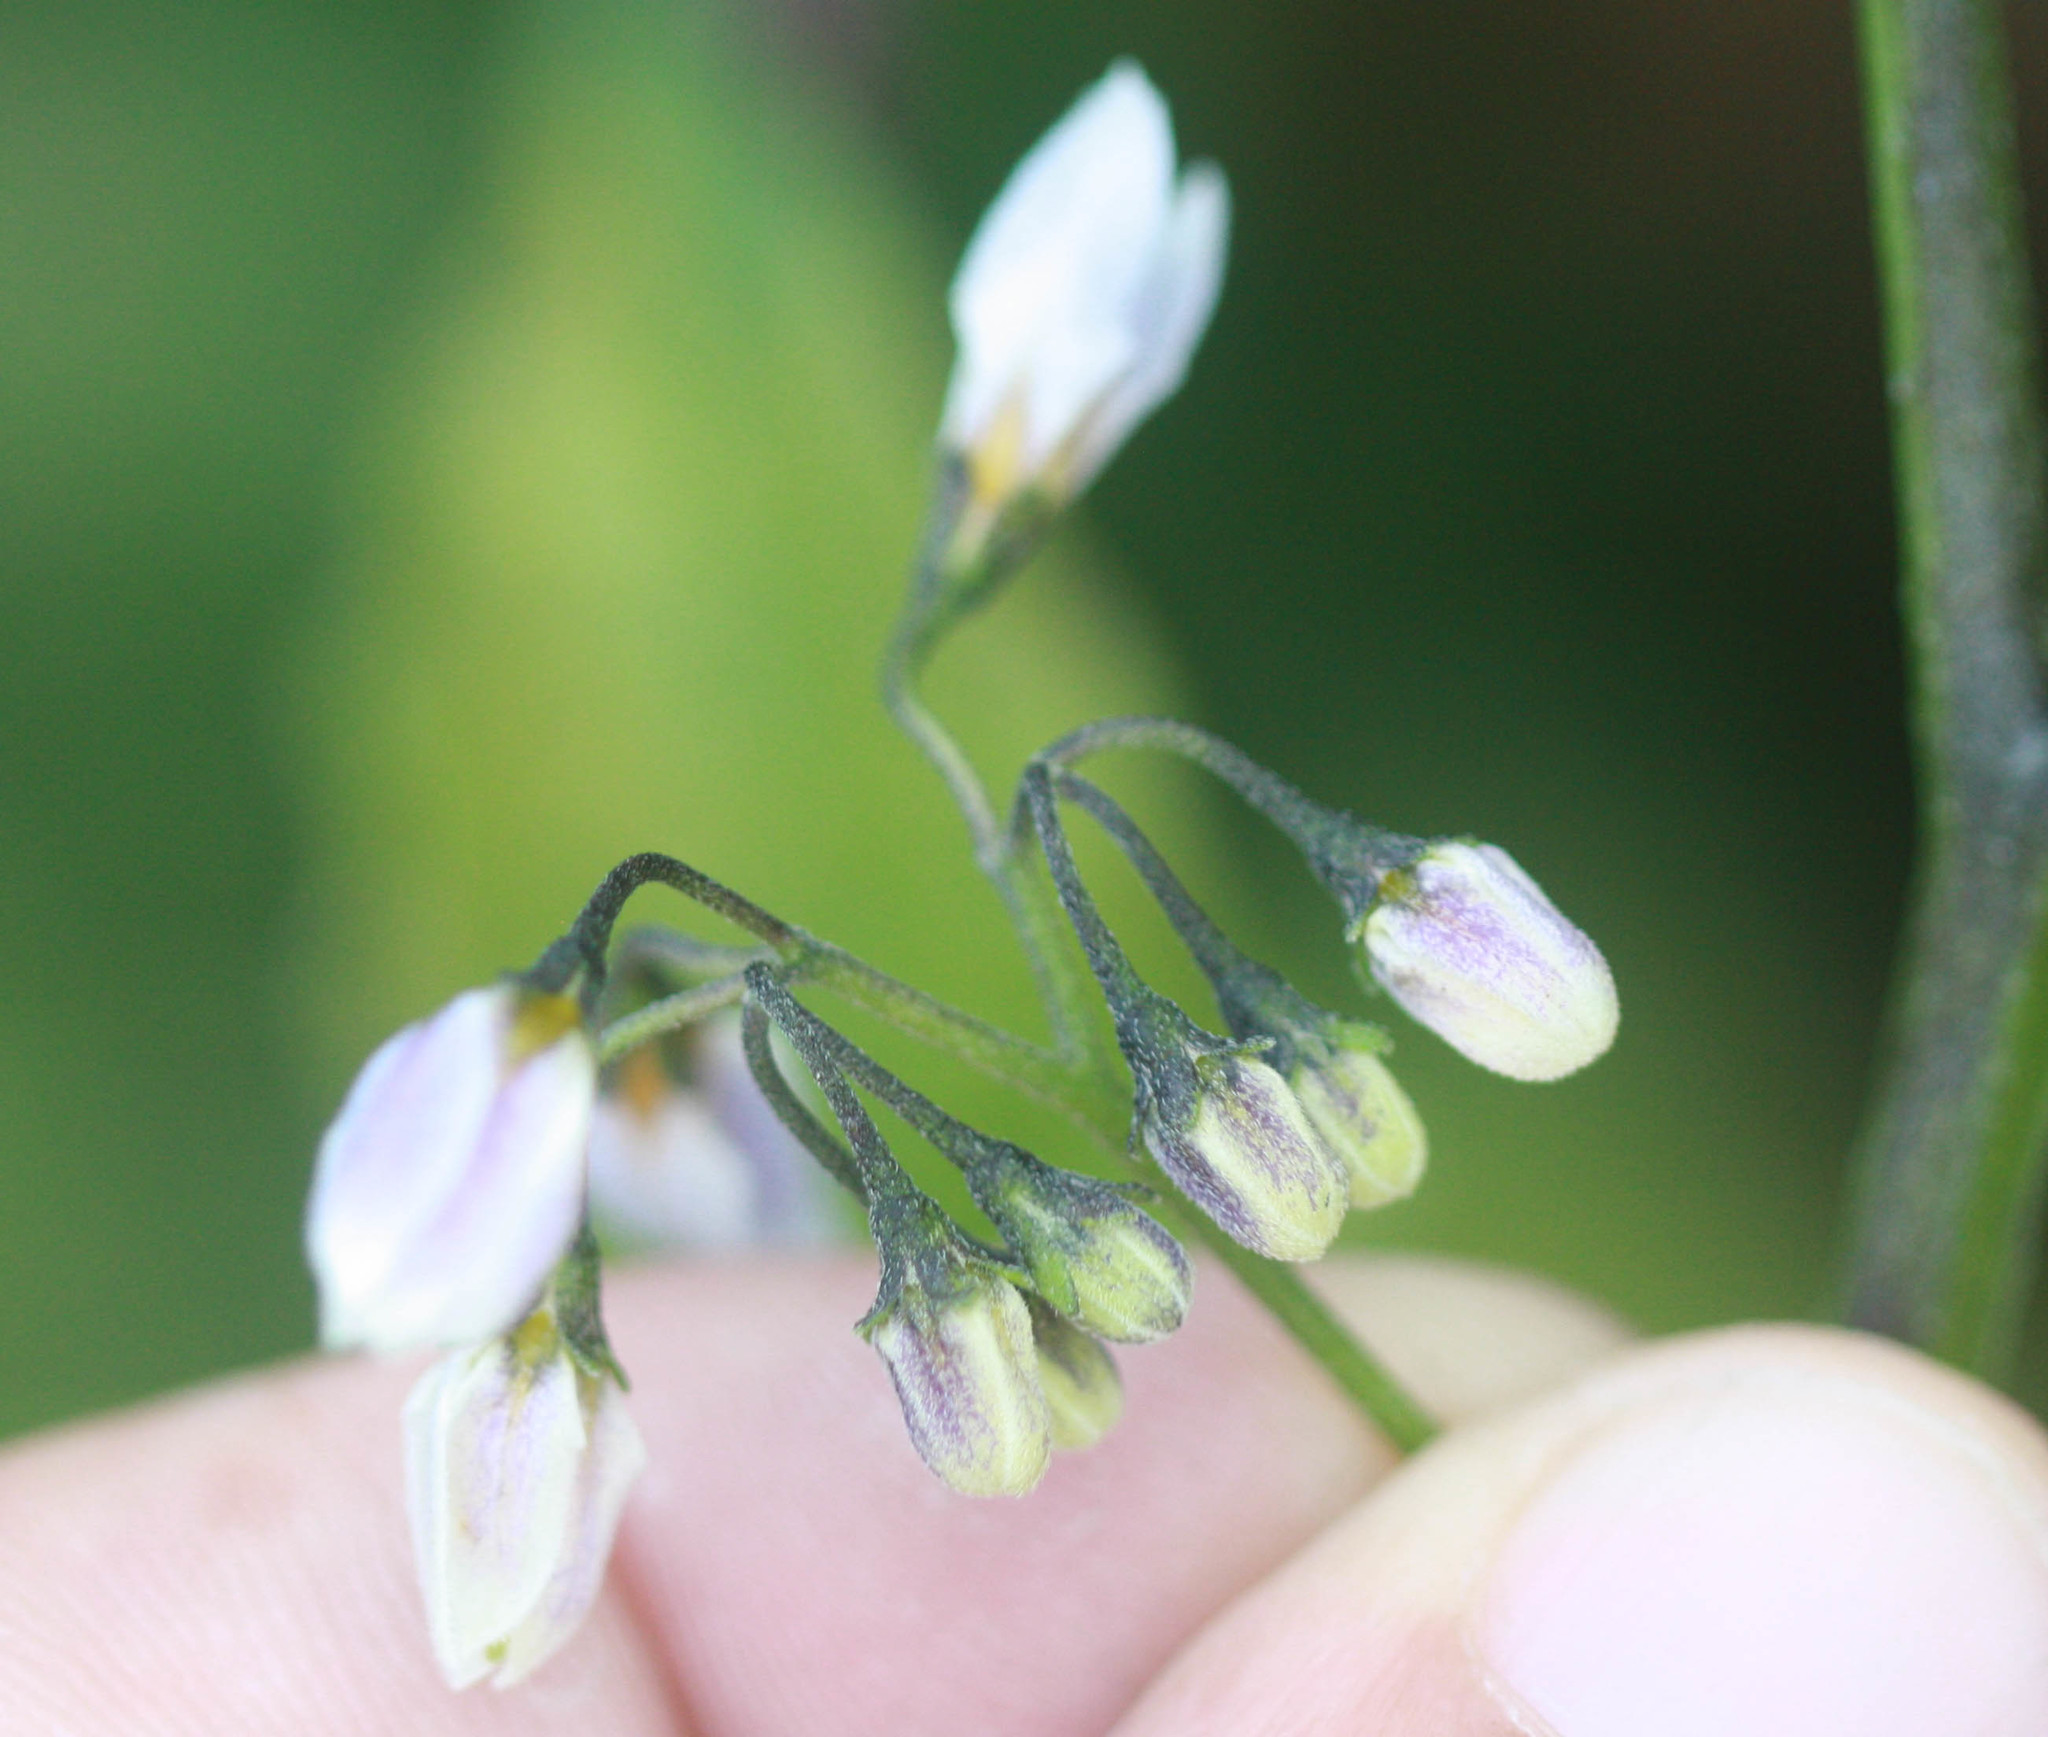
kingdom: Plantae
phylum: Tracheophyta
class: Magnoliopsida
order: Solanales
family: Solanaceae
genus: Solanum
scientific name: Solanum furcatum
